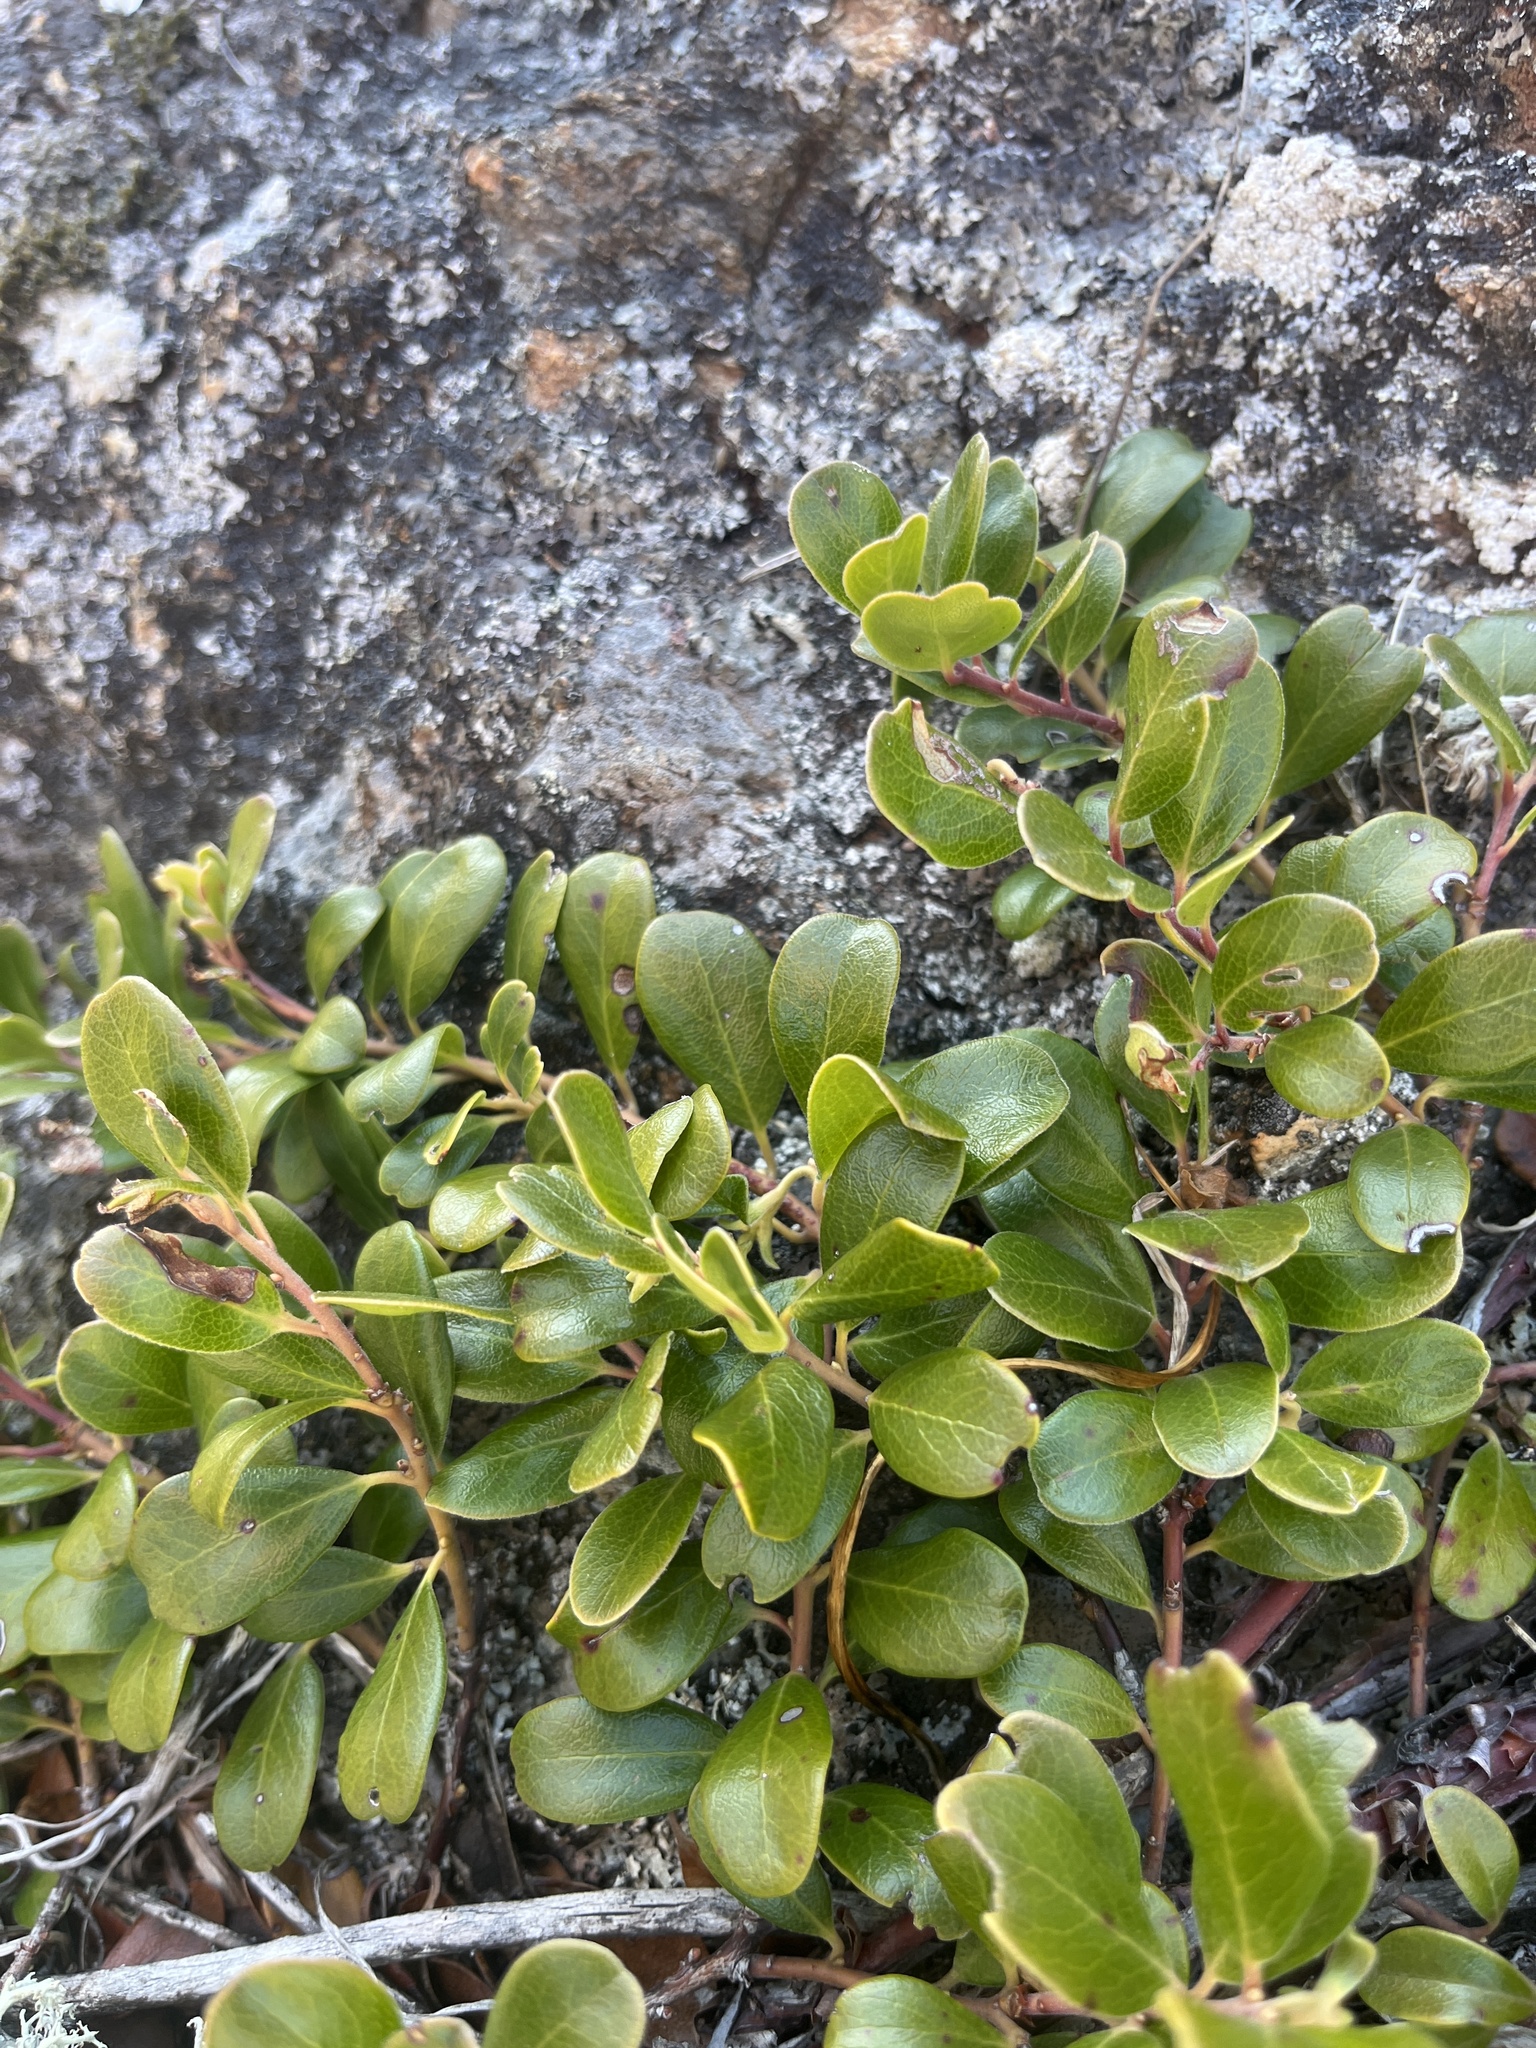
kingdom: Plantae
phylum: Tracheophyta
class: Magnoliopsida
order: Ericales
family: Ericaceae
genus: Arctostaphylos
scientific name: Arctostaphylos uva-ursi
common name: Bearberry
